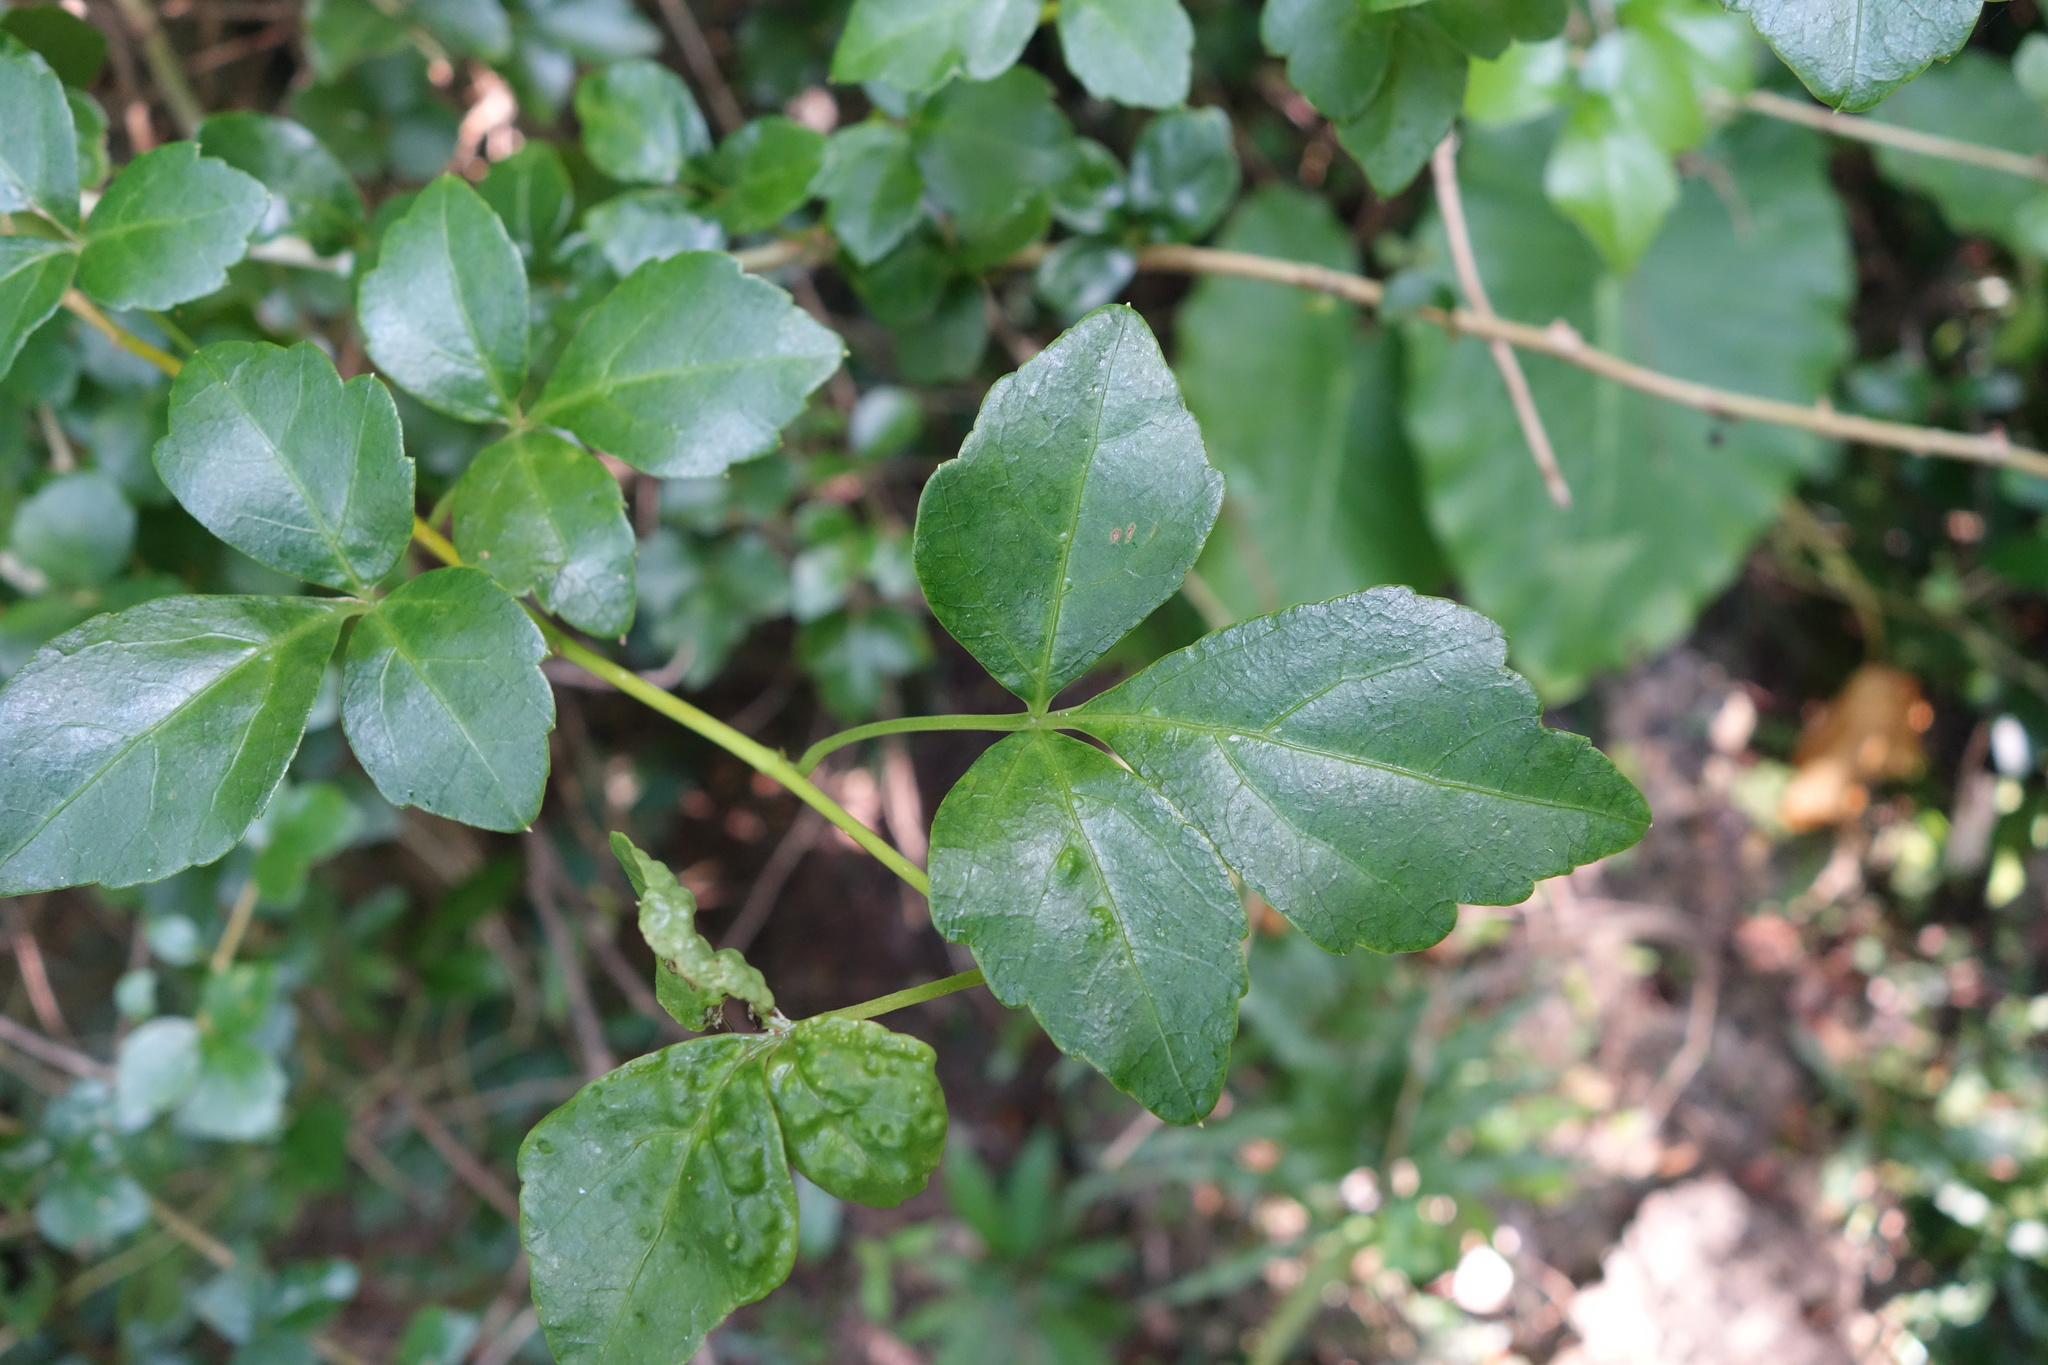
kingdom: Plantae
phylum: Tracheophyta
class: Magnoliopsida
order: Apiales
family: Araliaceae
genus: Eleutherococcus
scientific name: Eleutherococcus trifoliatus
